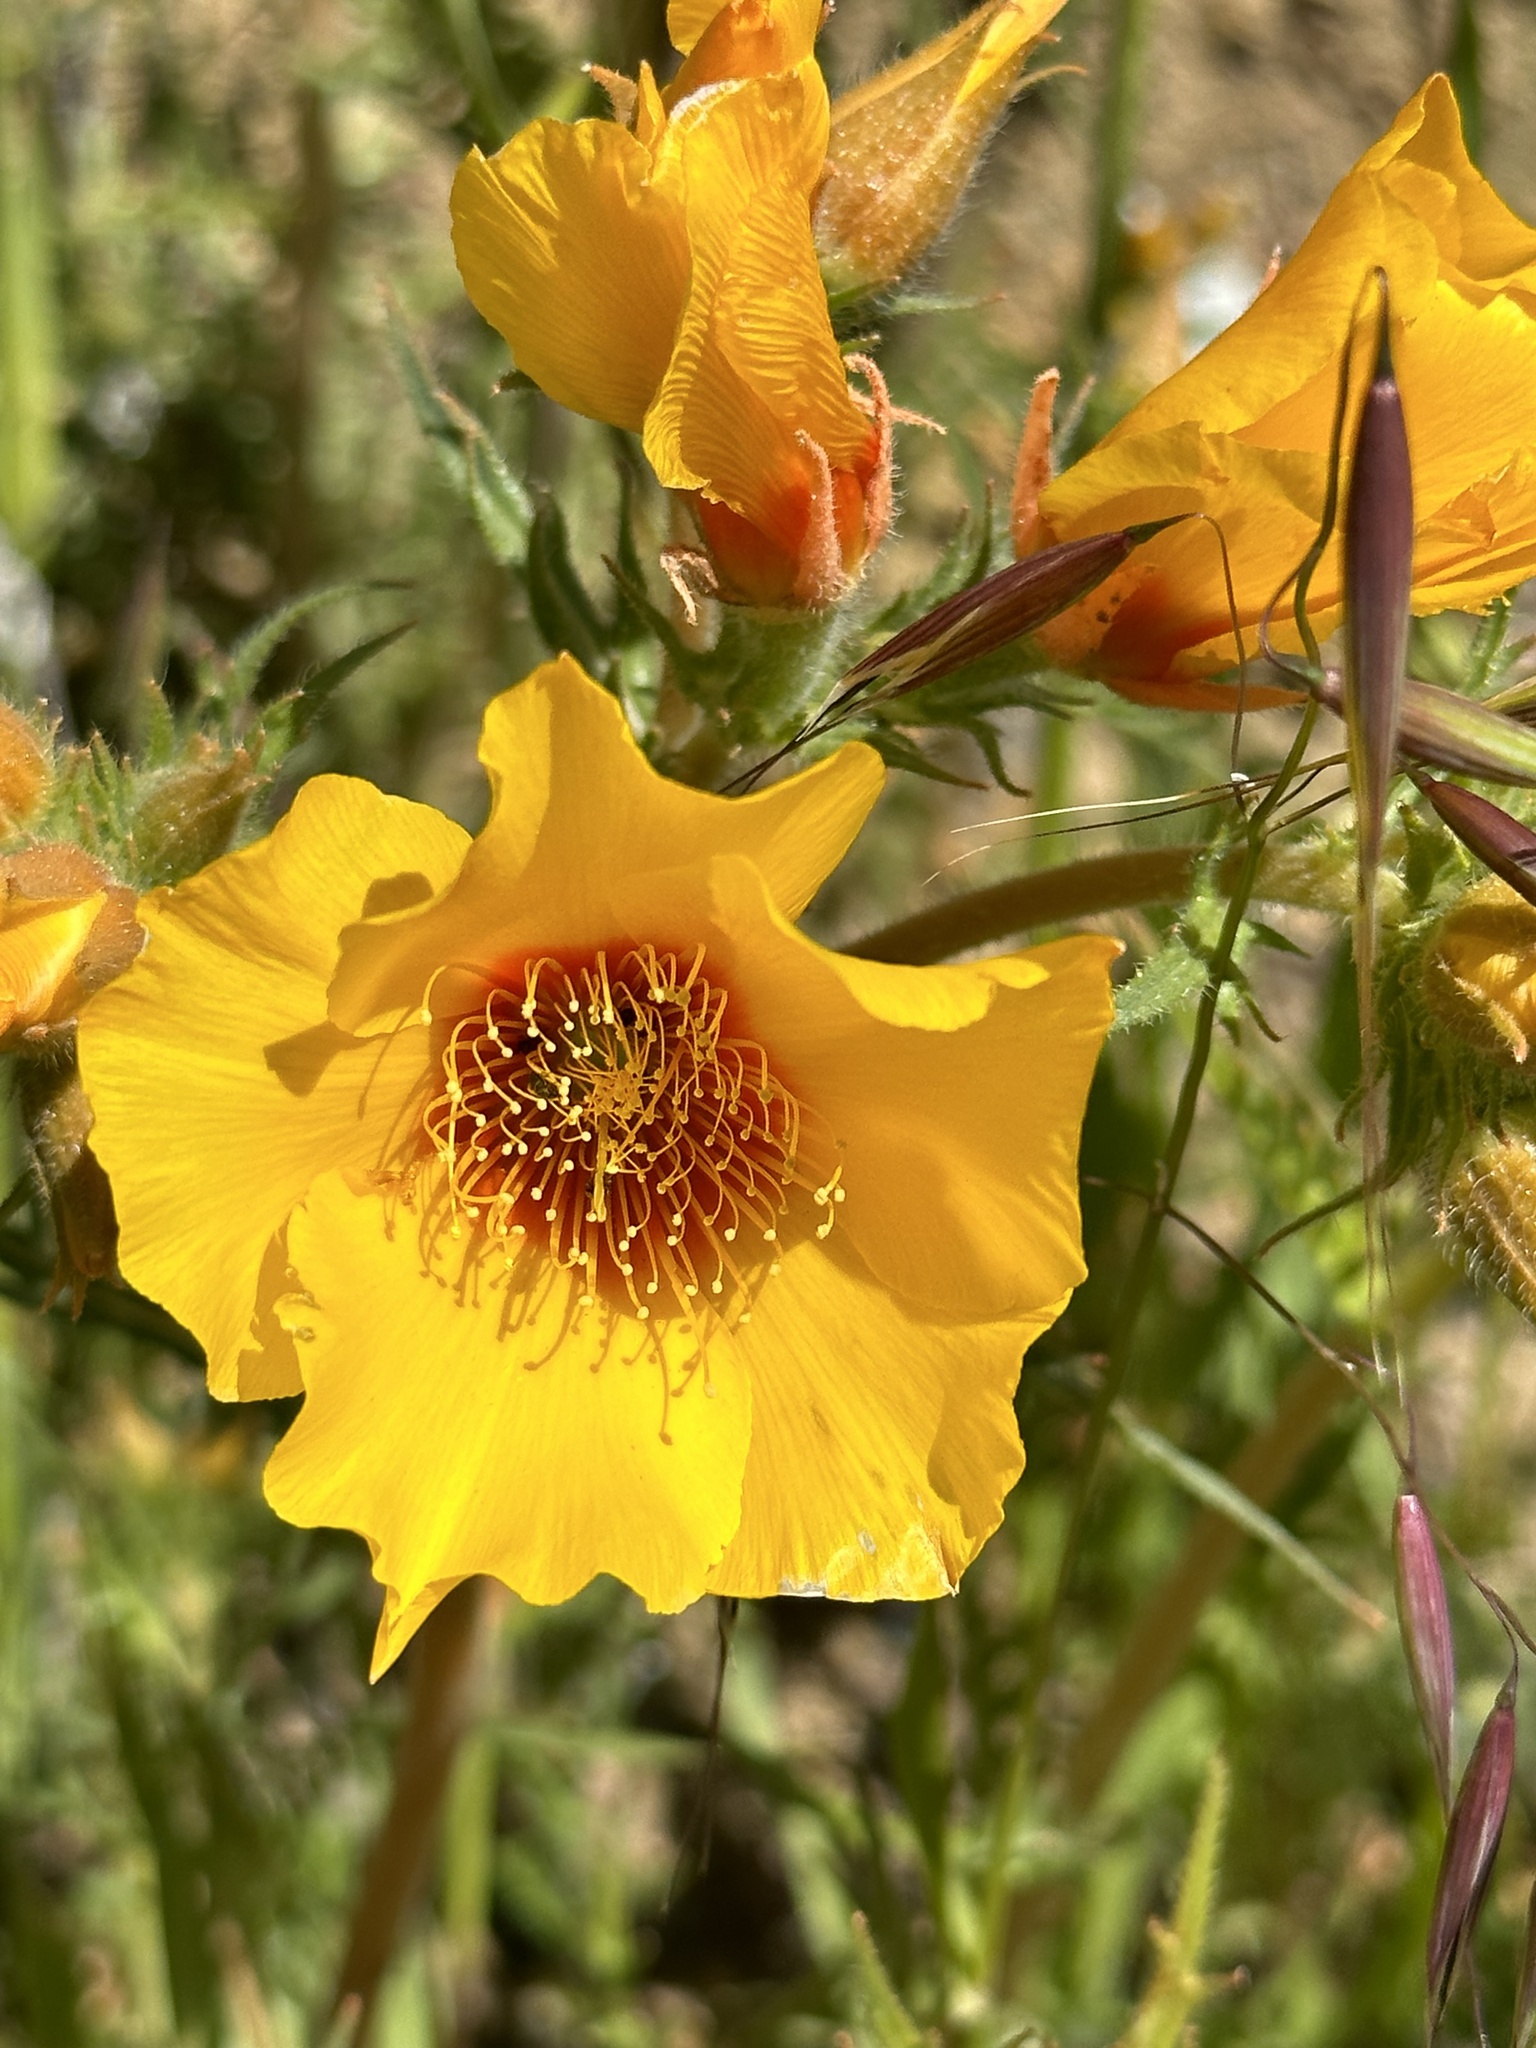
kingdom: Plantae
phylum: Tracheophyta
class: Magnoliopsida
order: Cornales
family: Loasaceae
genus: Mentzelia
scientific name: Mentzelia lindleyi
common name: Golden bartonia
